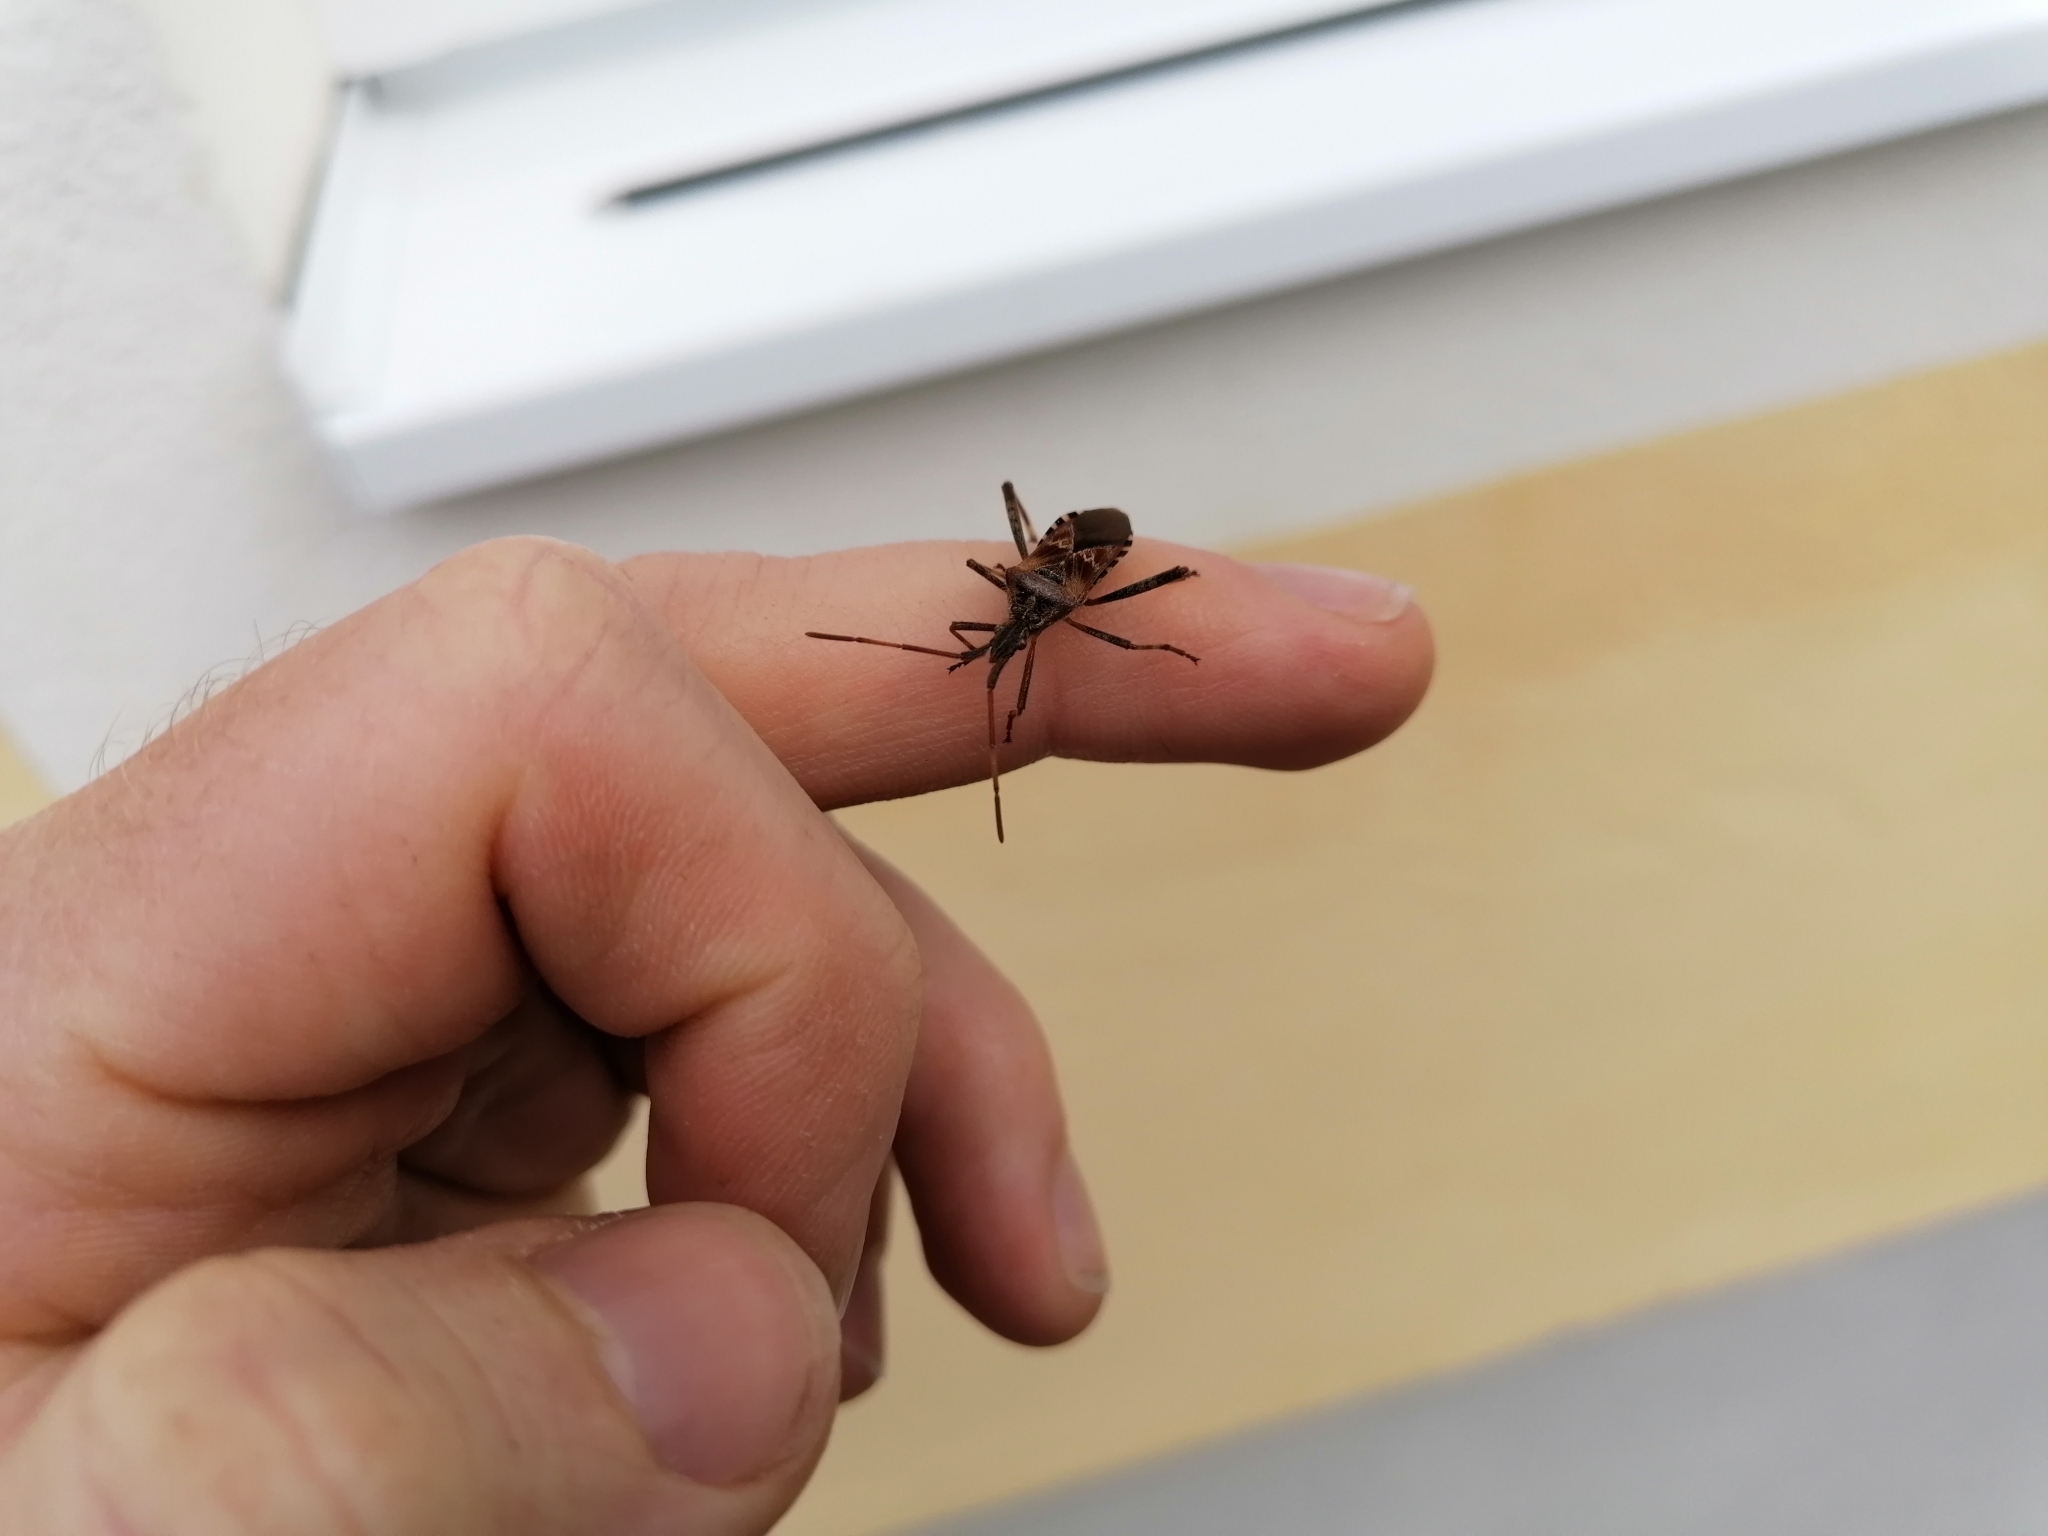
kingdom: Animalia
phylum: Arthropoda
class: Insecta
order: Hemiptera
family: Coreidae
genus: Leptoglossus
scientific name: Leptoglossus occidentalis
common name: Western conifer-seed bug
